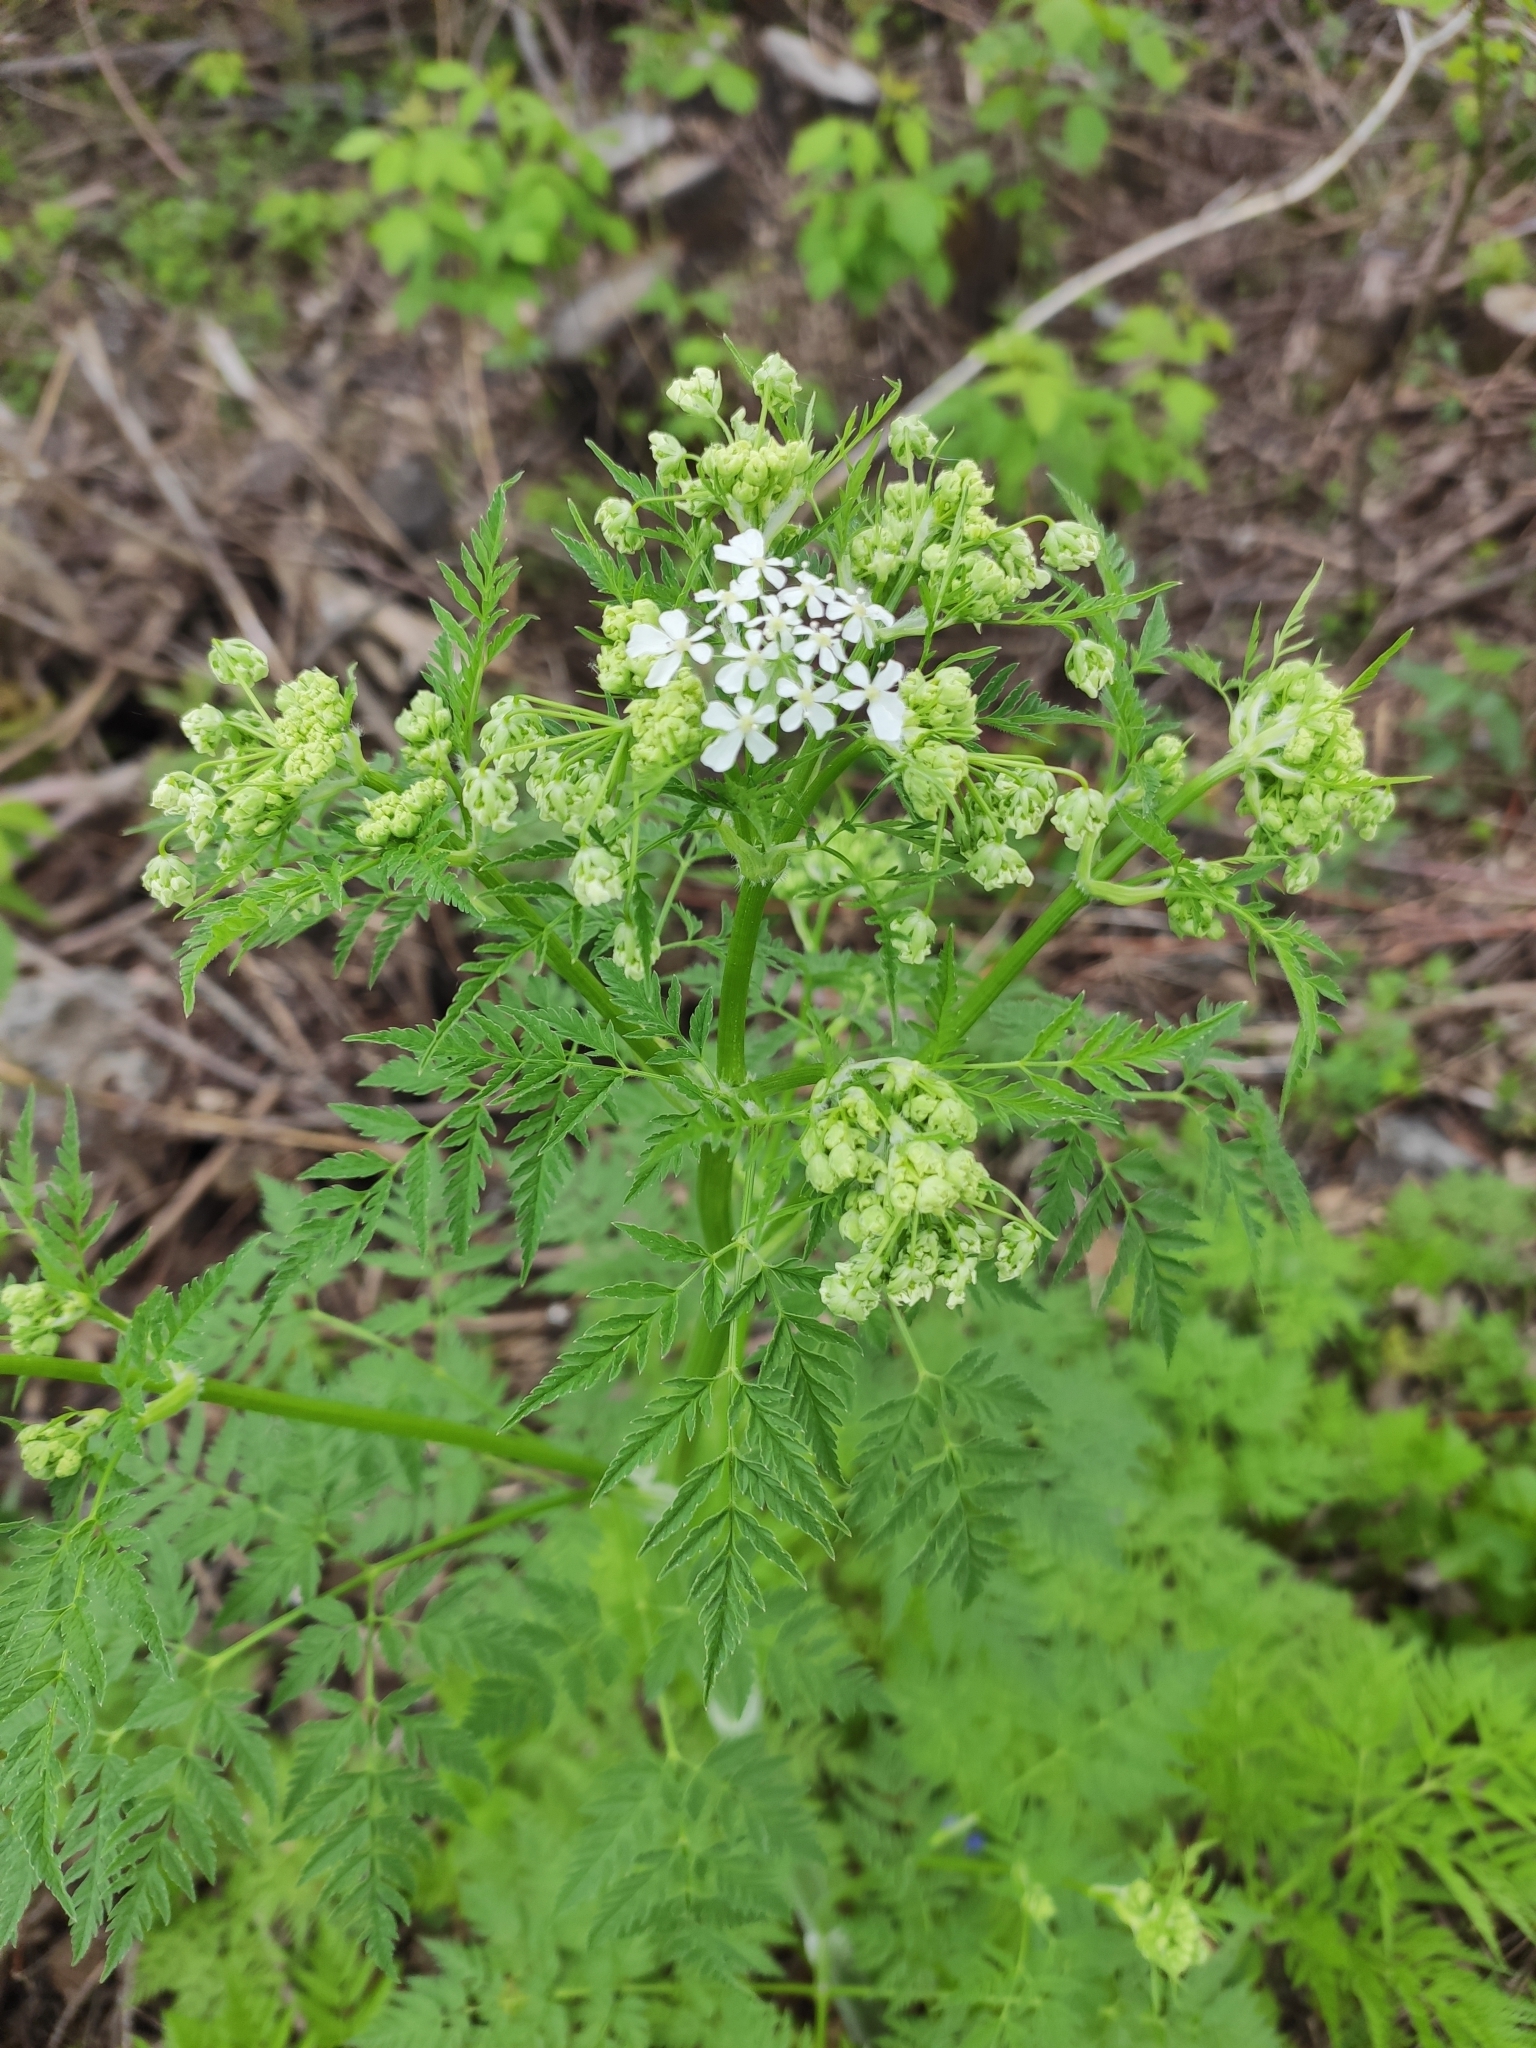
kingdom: Plantae
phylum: Tracheophyta
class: Magnoliopsida
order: Apiales
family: Apiaceae
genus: Anthriscus
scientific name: Anthriscus sylvestris
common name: Cow parsley
